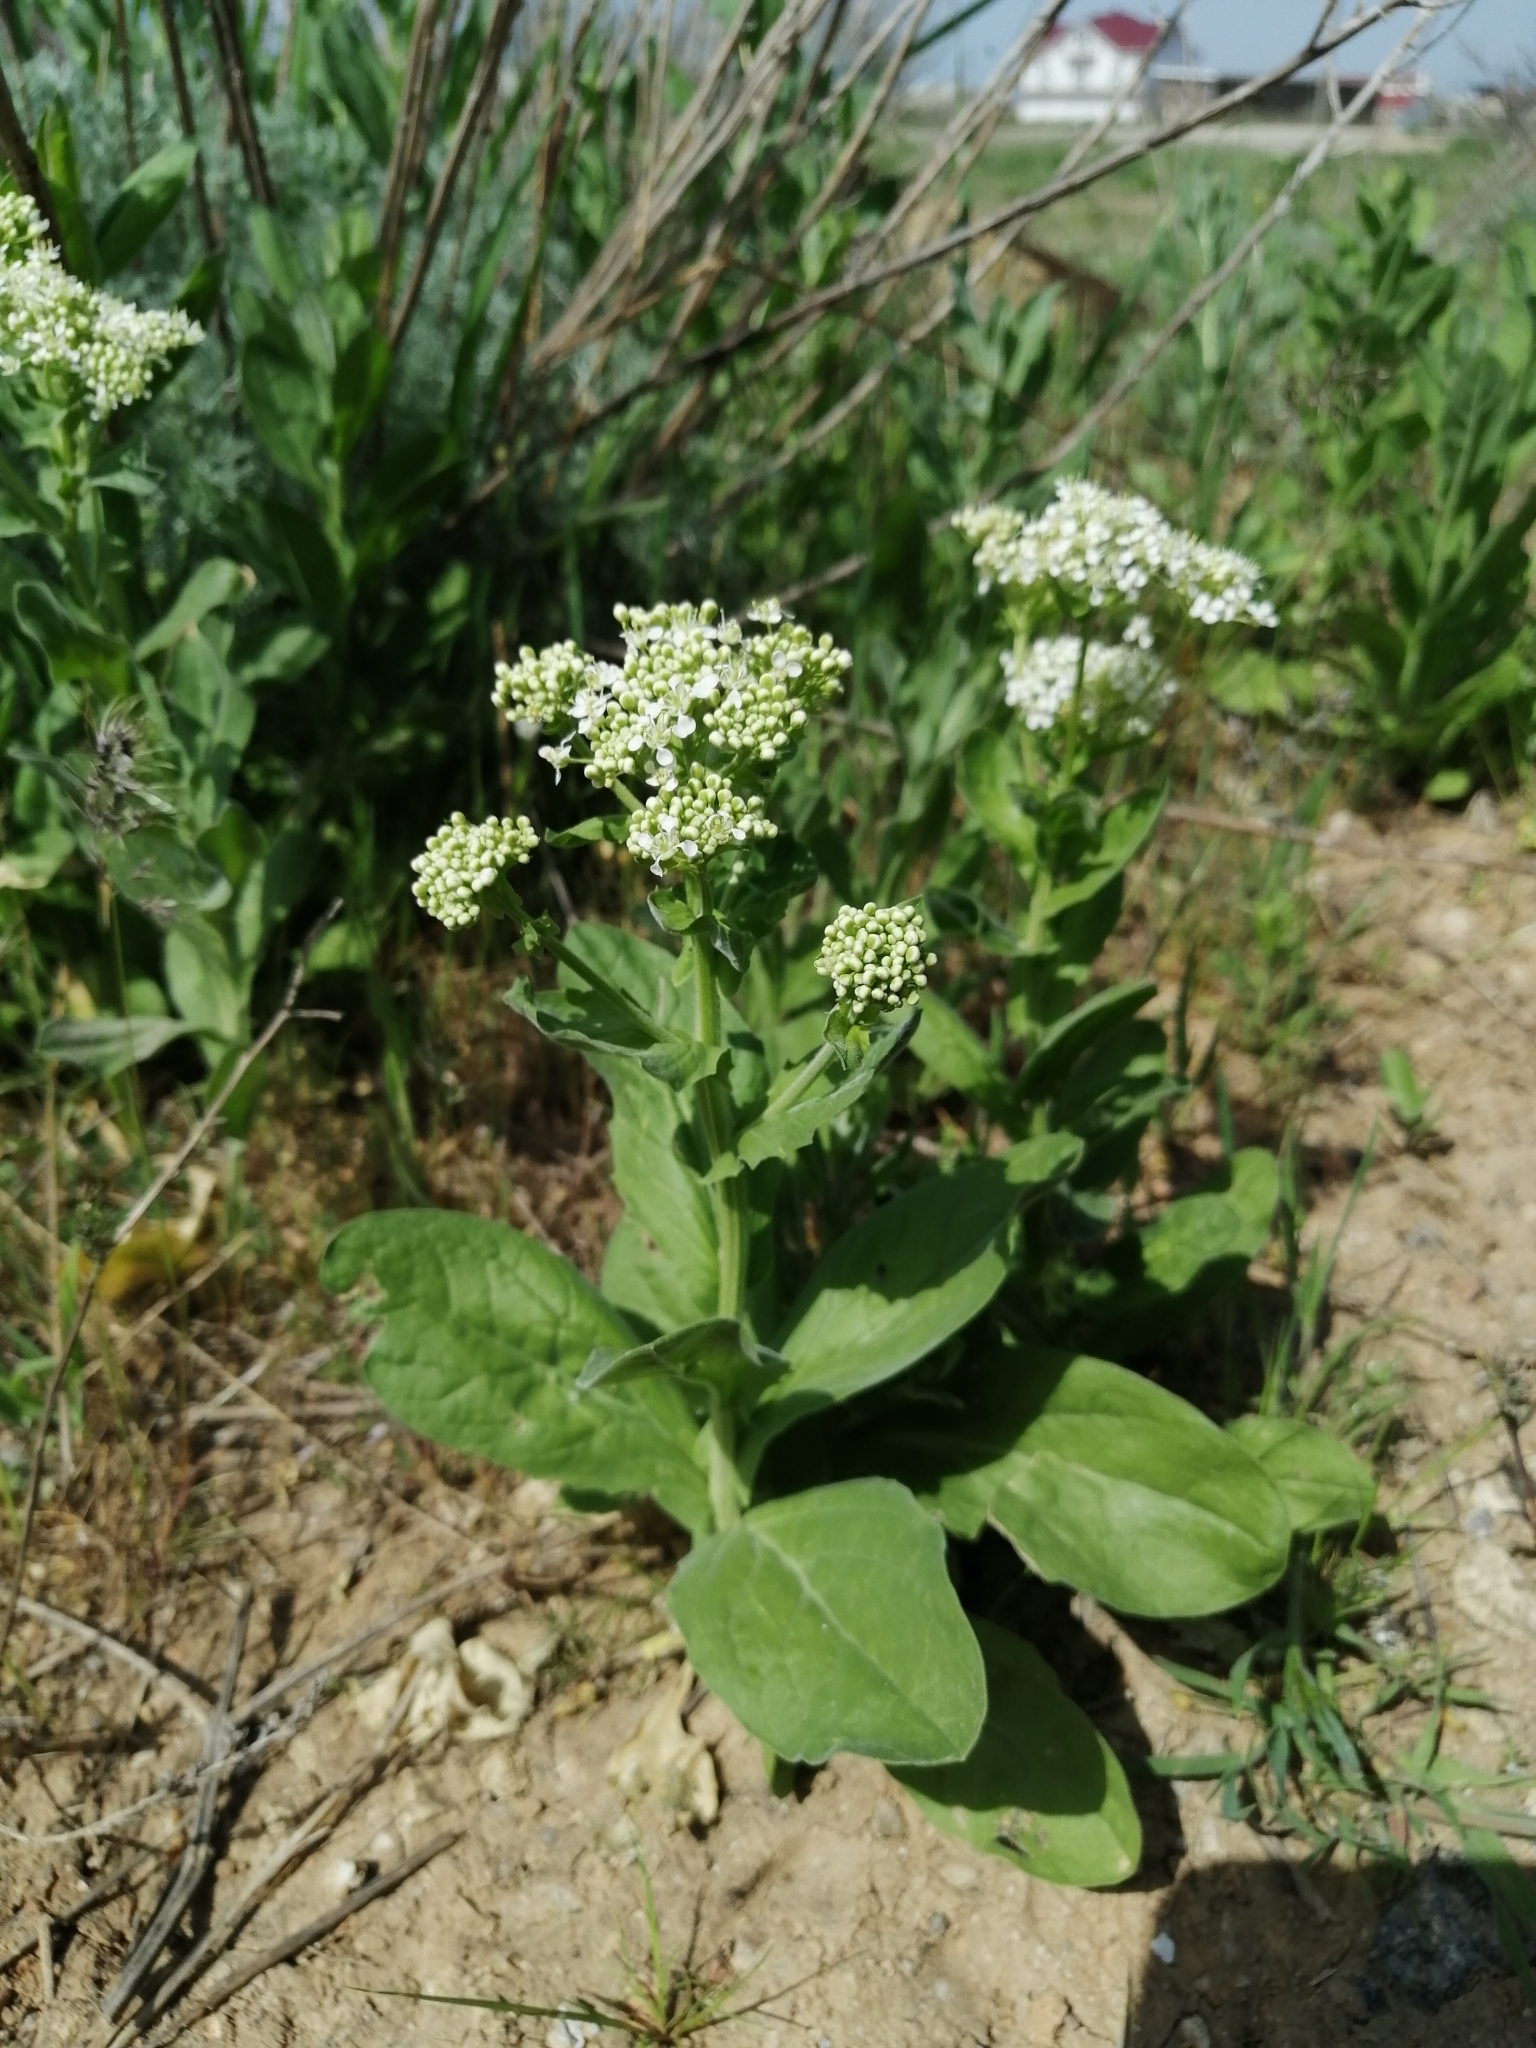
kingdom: Plantae
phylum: Tracheophyta
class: Magnoliopsida
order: Brassicales
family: Brassicaceae
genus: Lepidium
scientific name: Lepidium draba
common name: Hoary cress
